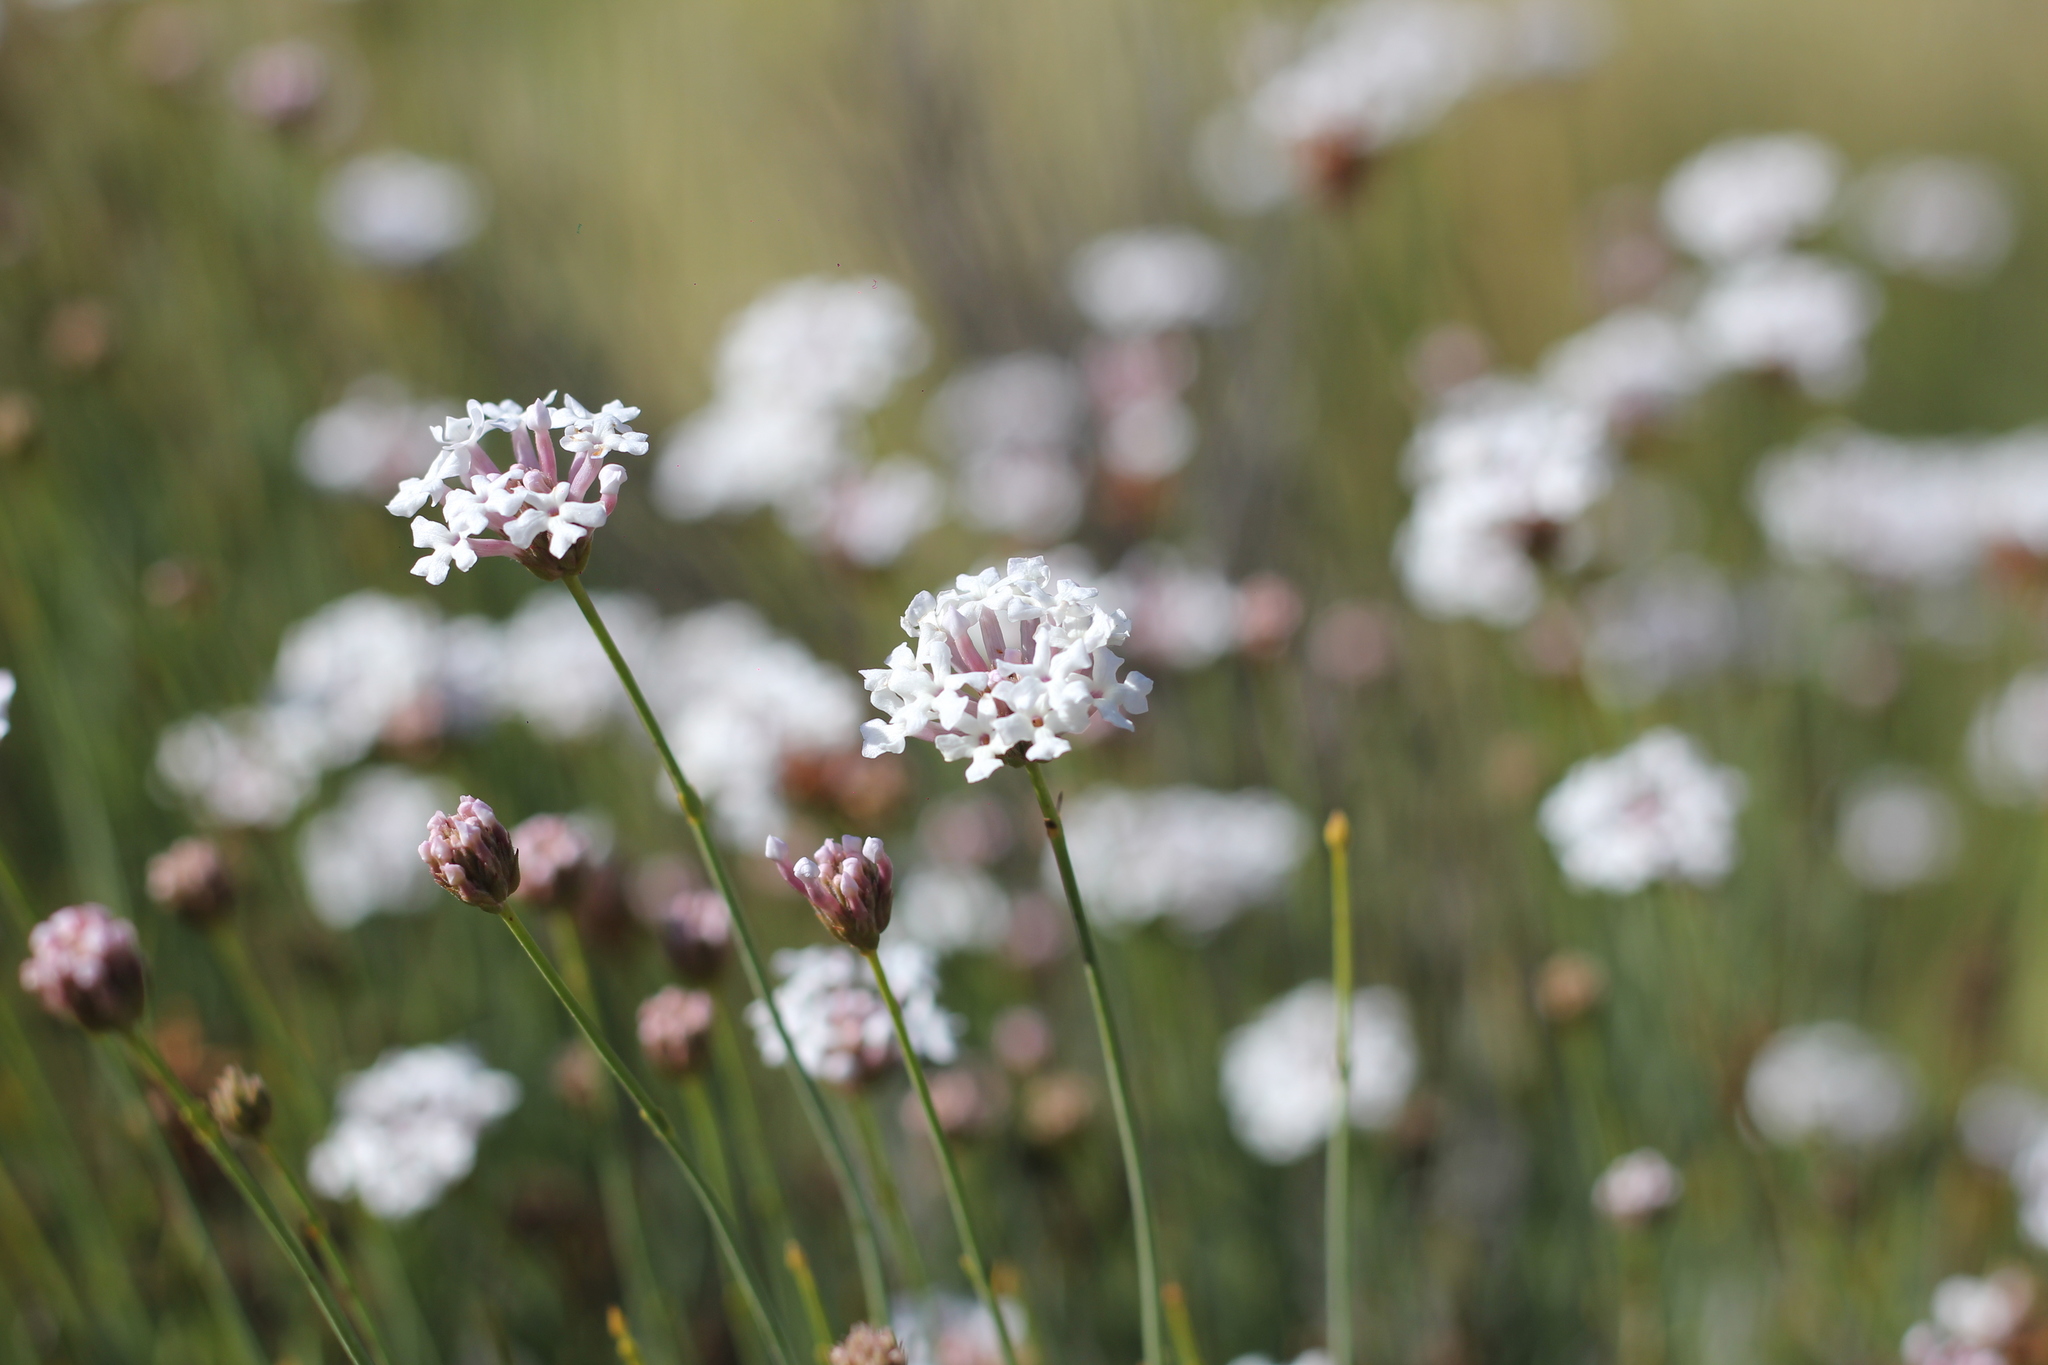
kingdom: Plantae
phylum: Tracheophyta
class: Magnoliopsida
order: Lamiales
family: Verbenaceae
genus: Junellia
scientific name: Junellia spathulata
